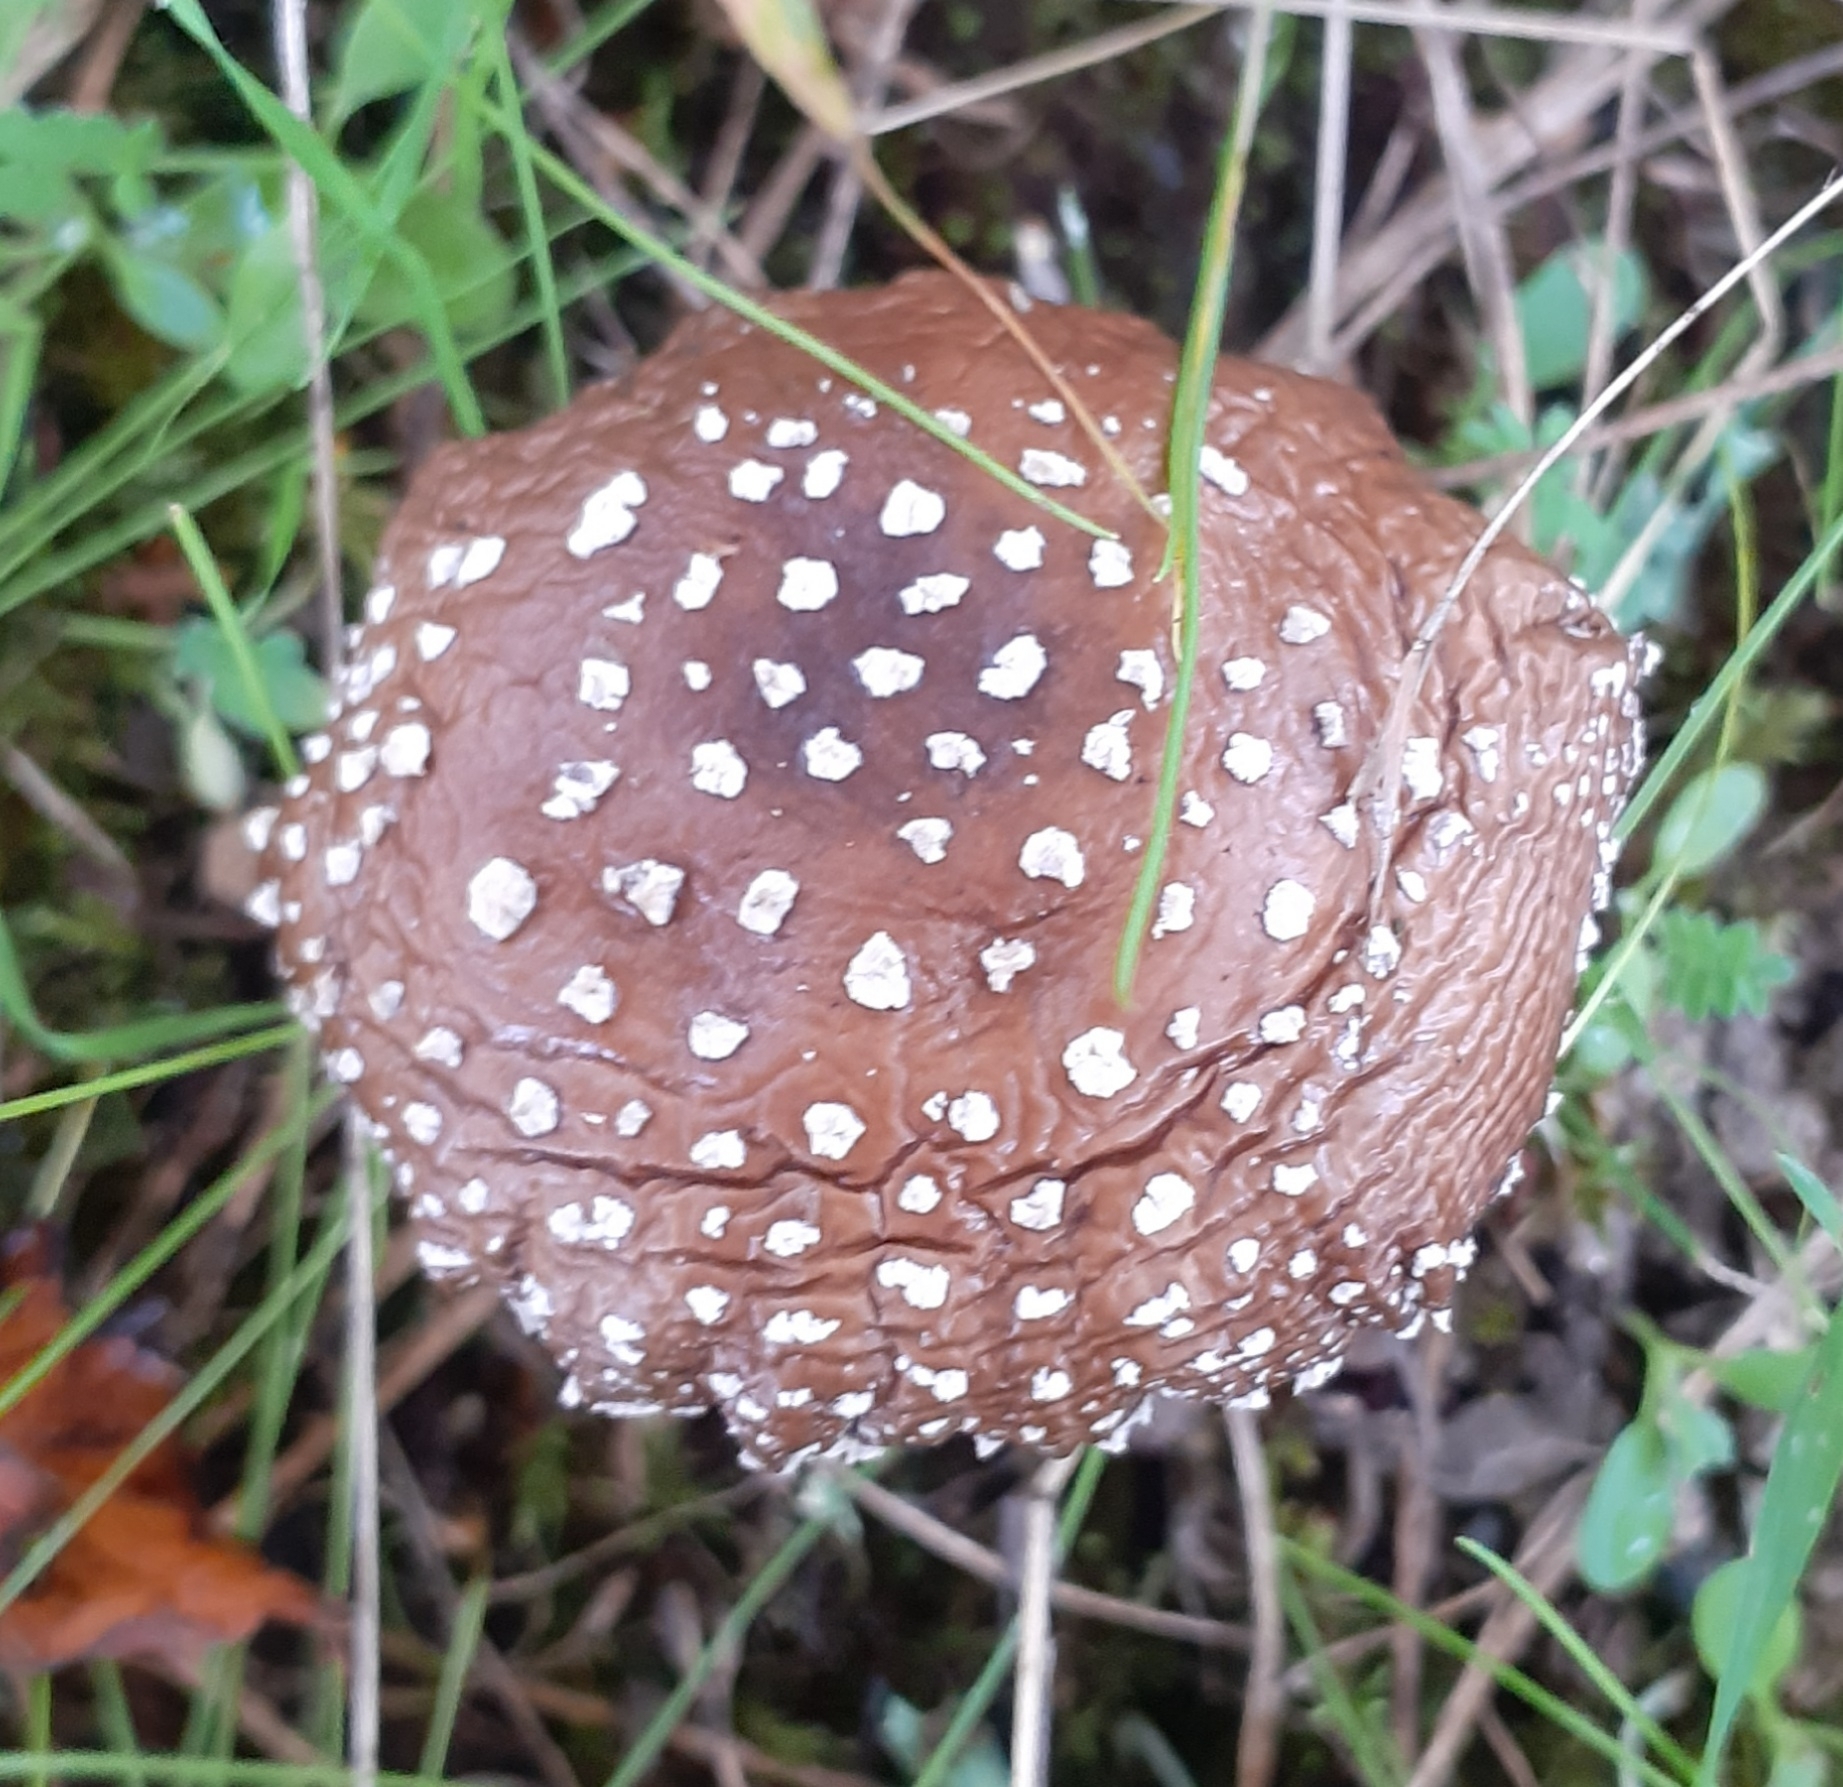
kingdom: Fungi
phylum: Basidiomycota
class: Agaricomycetes
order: Agaricales
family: Amanitaceae
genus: Amanita
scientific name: Amanita pantherina
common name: Panthercap
